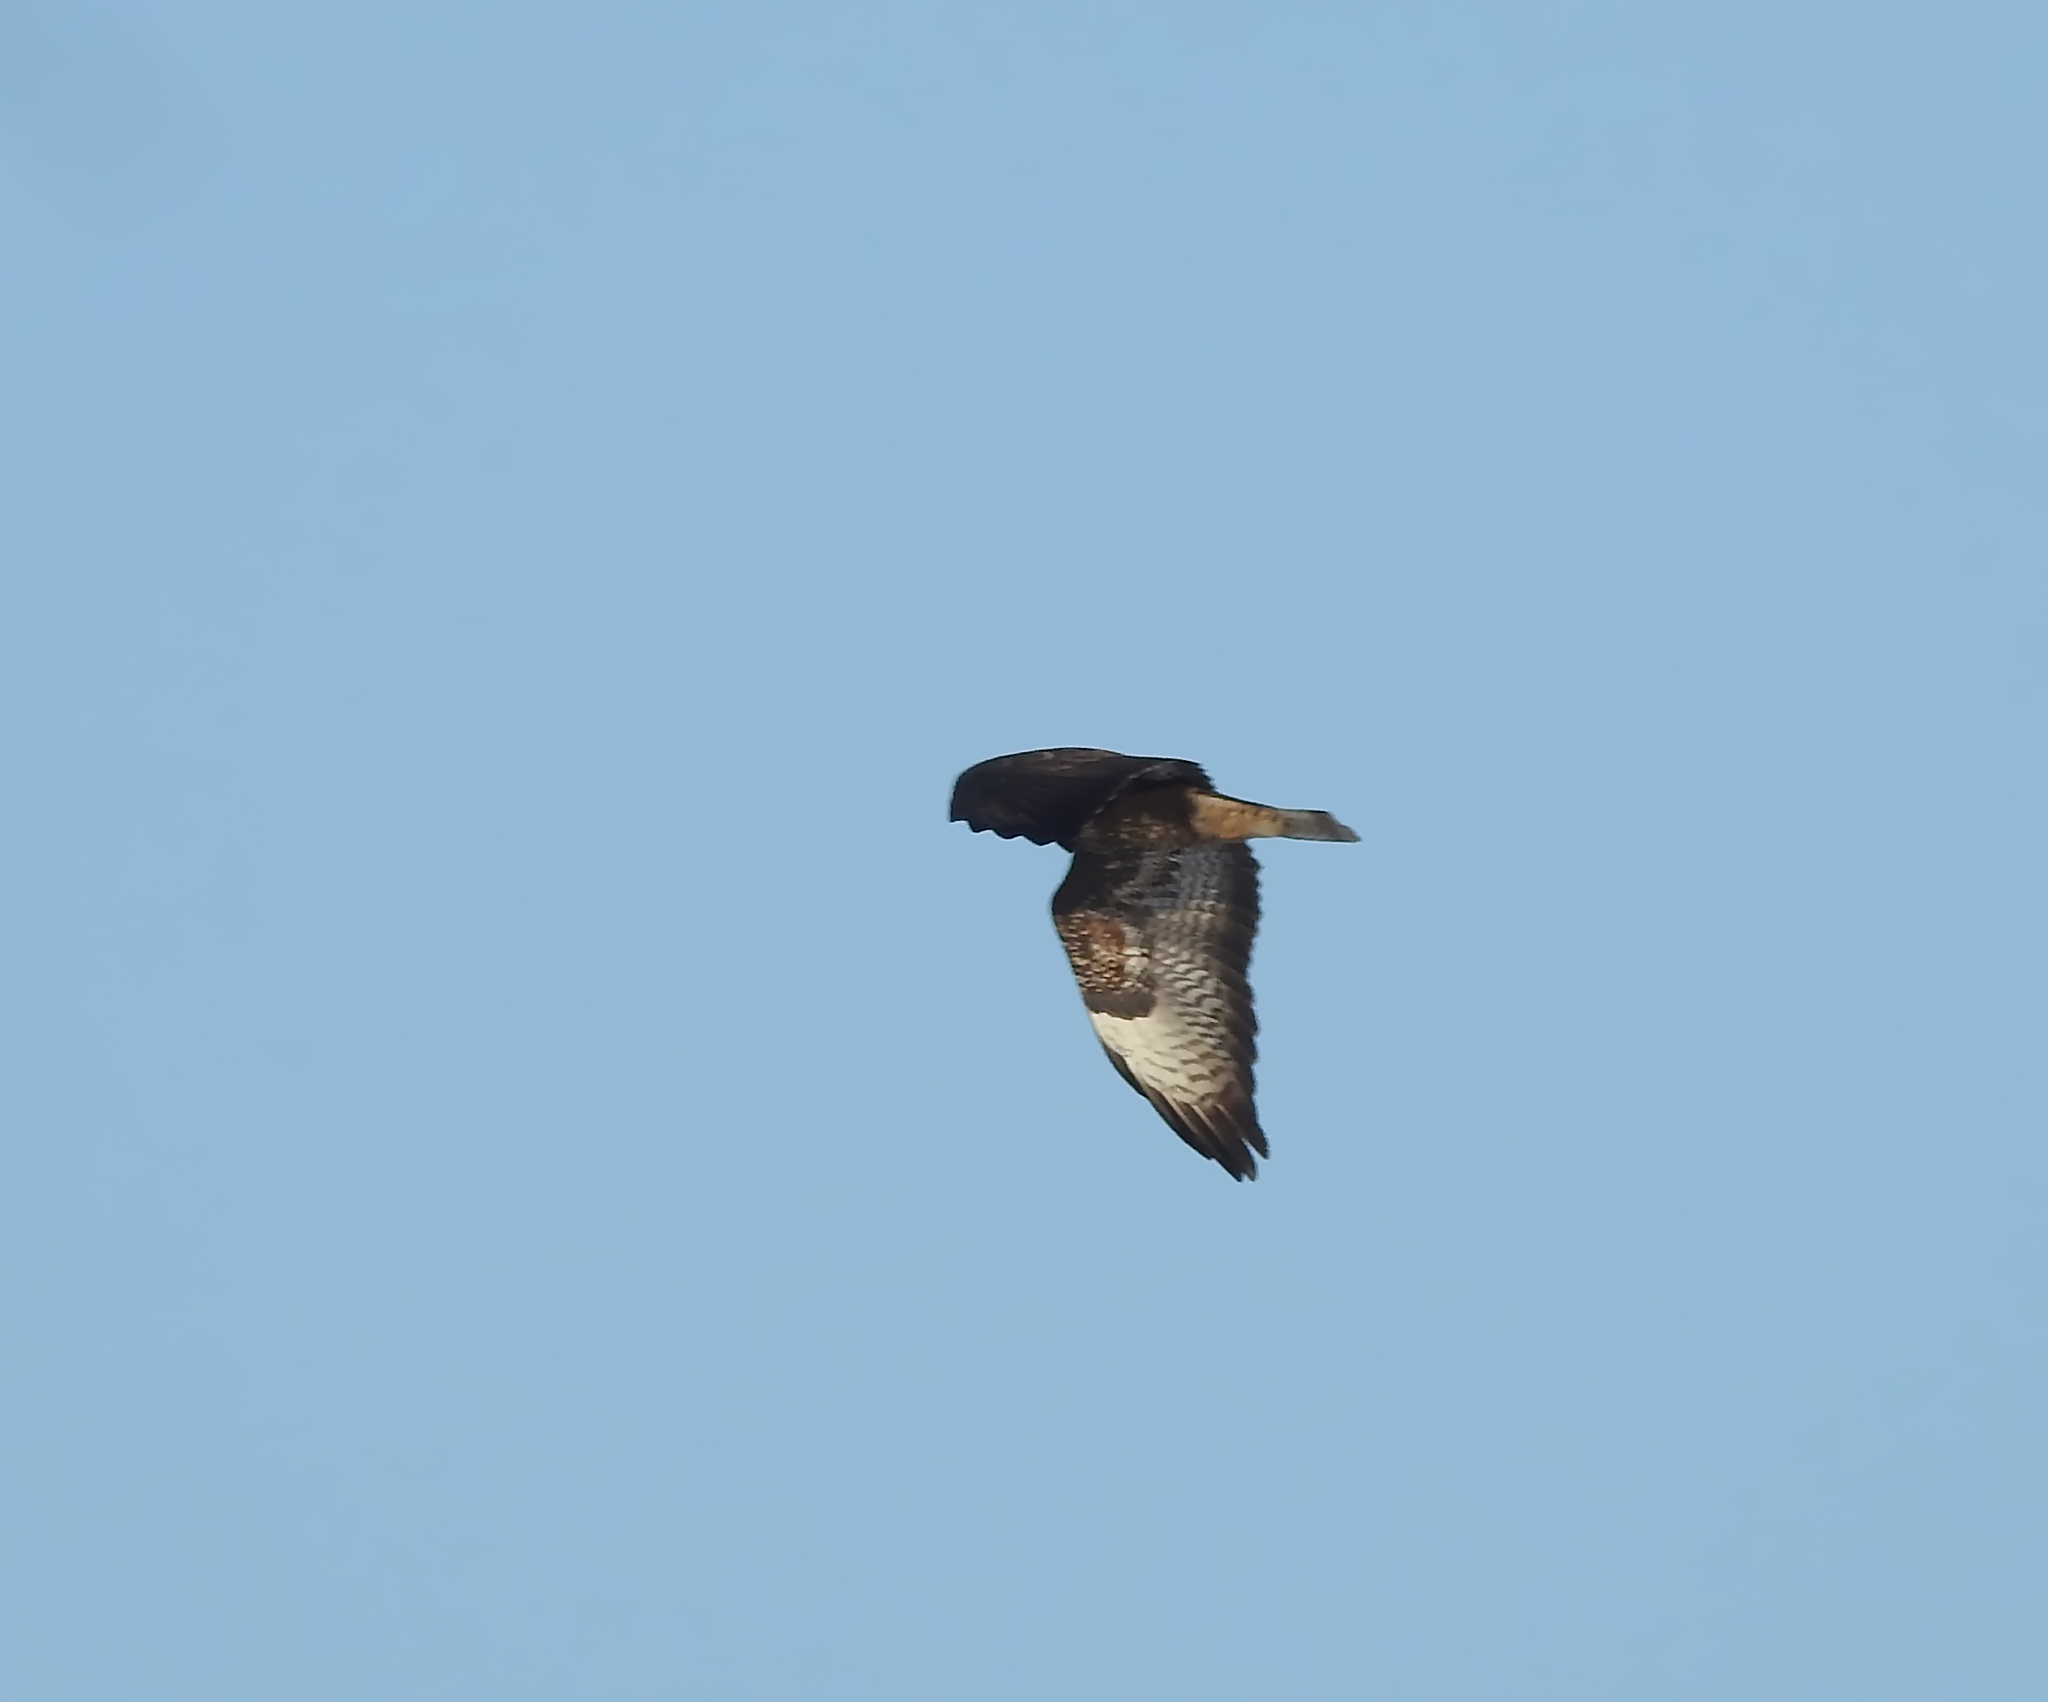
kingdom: Animalia
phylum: Chordata
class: Aves
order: Accipitriformes
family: Accipitridae
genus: Buteo
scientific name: Buteo buteo
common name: Common buzzard
